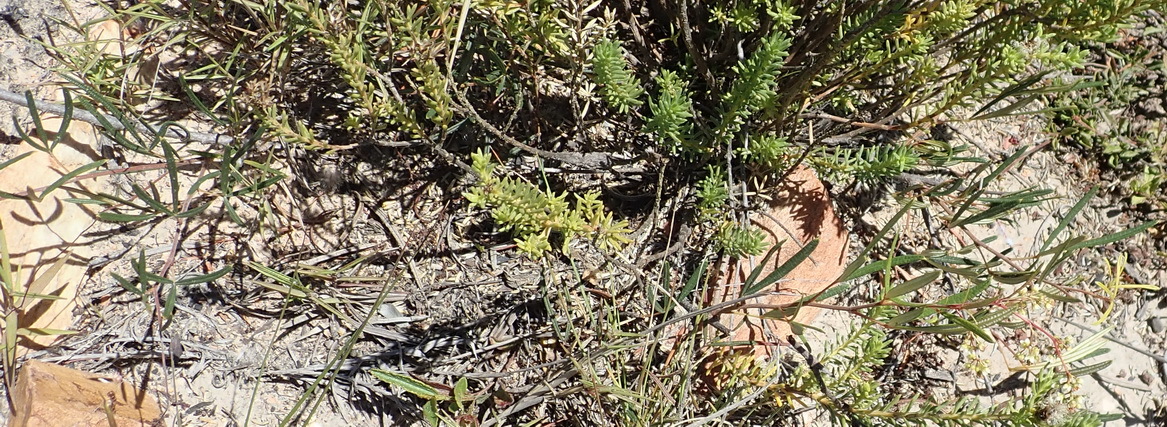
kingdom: Plantae
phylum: Tracheophyta
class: Magnoliopsida
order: Sapindales
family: Anacardiaceae
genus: Searsia
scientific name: Searsia rosmarinifolia
